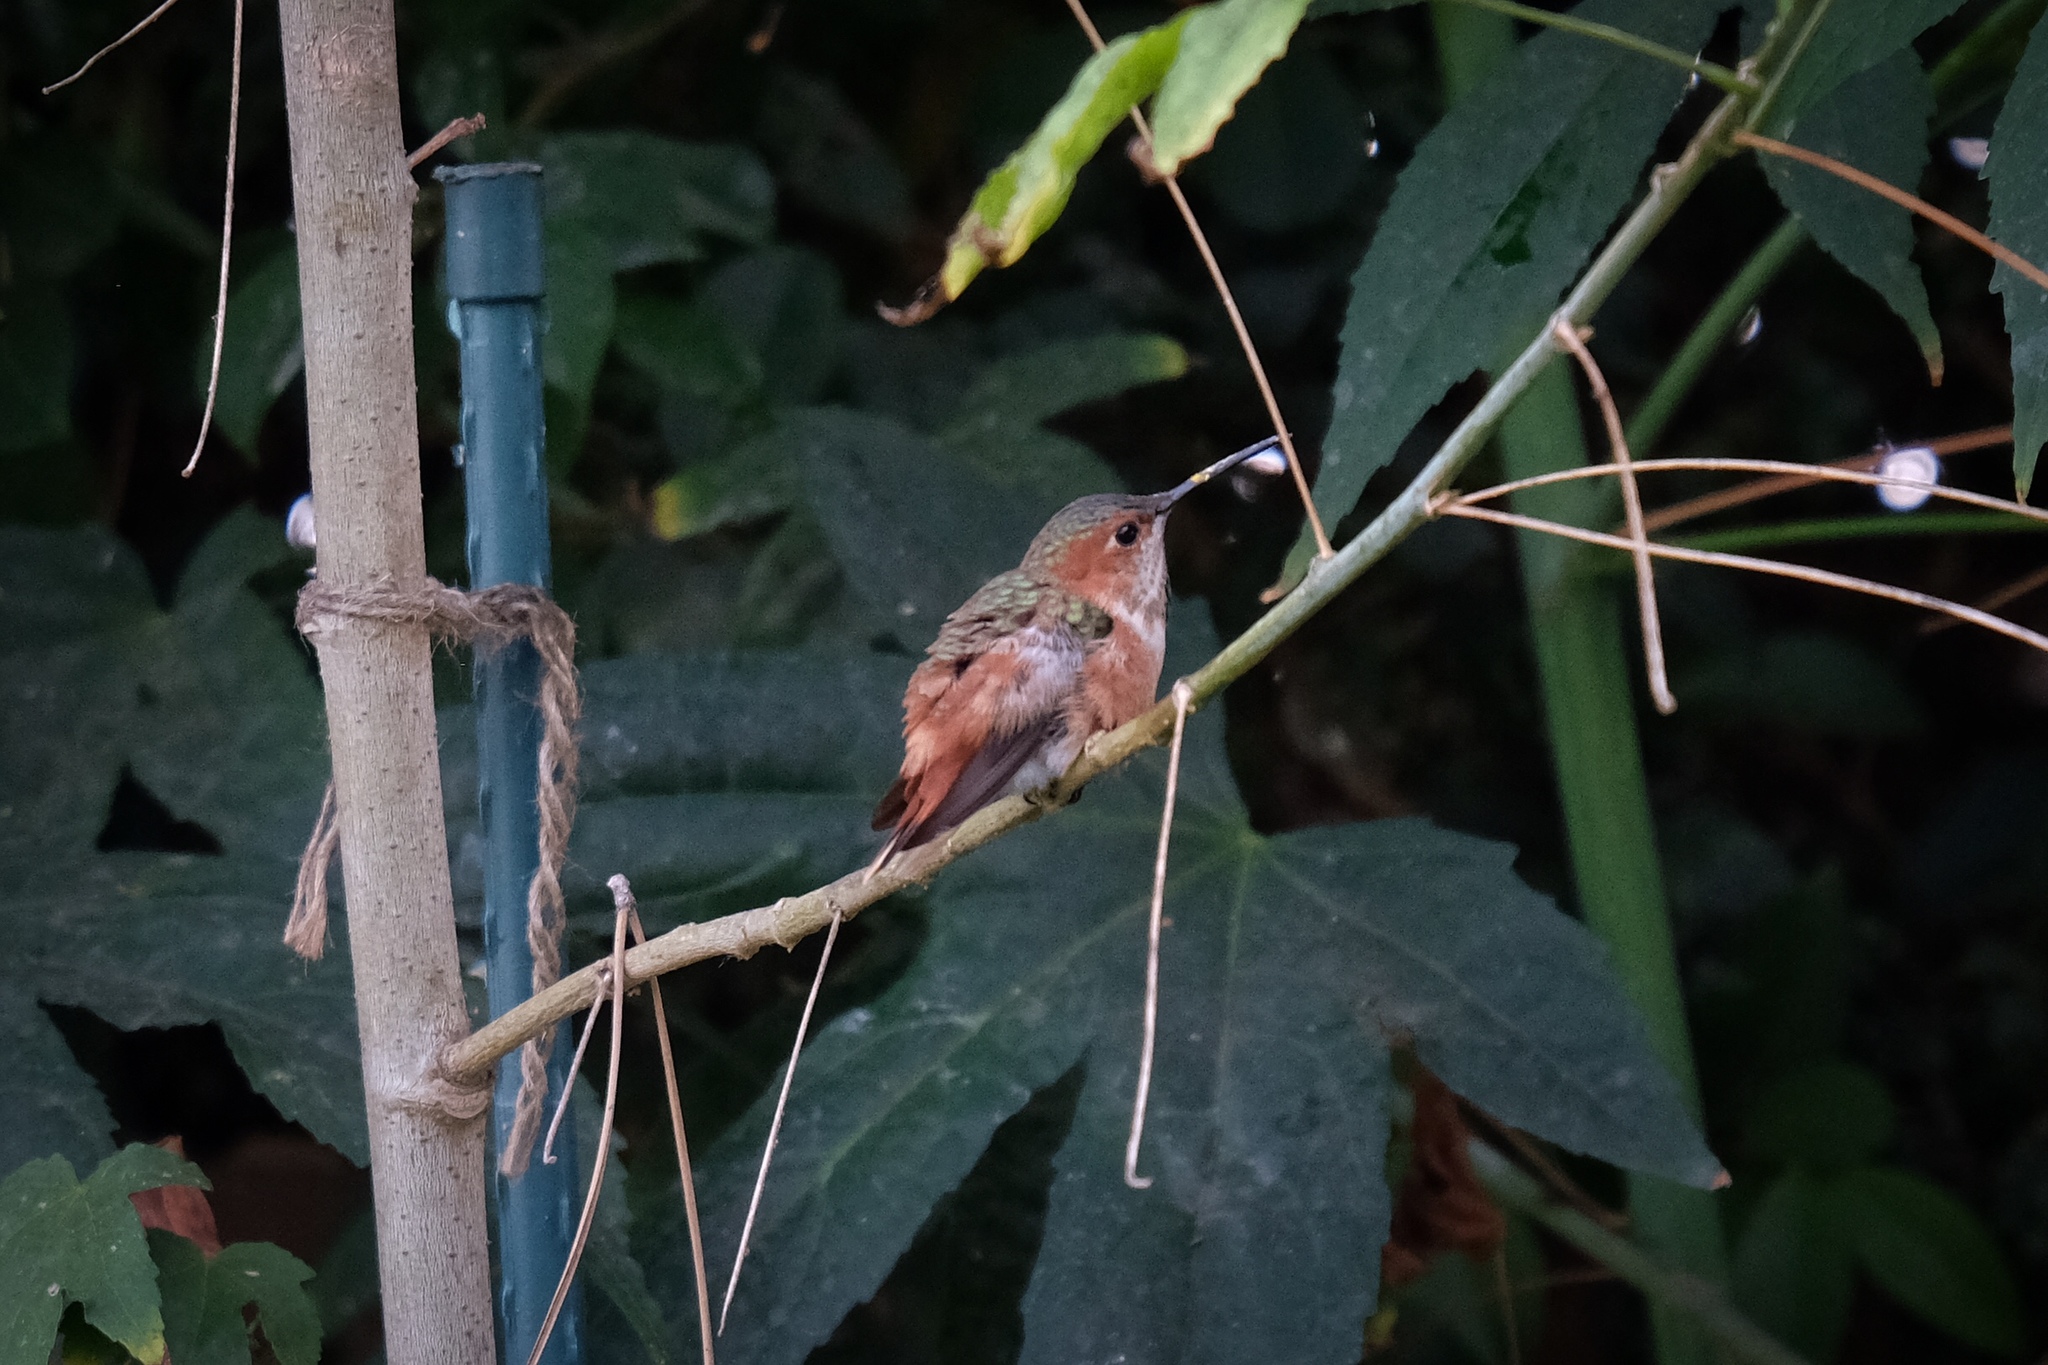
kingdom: Animalia
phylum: Chordata
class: Aves
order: Apodiformes
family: Trochilidae
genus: Selasphorus
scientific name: Selasphorus rufus
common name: Rufous hummingbird
